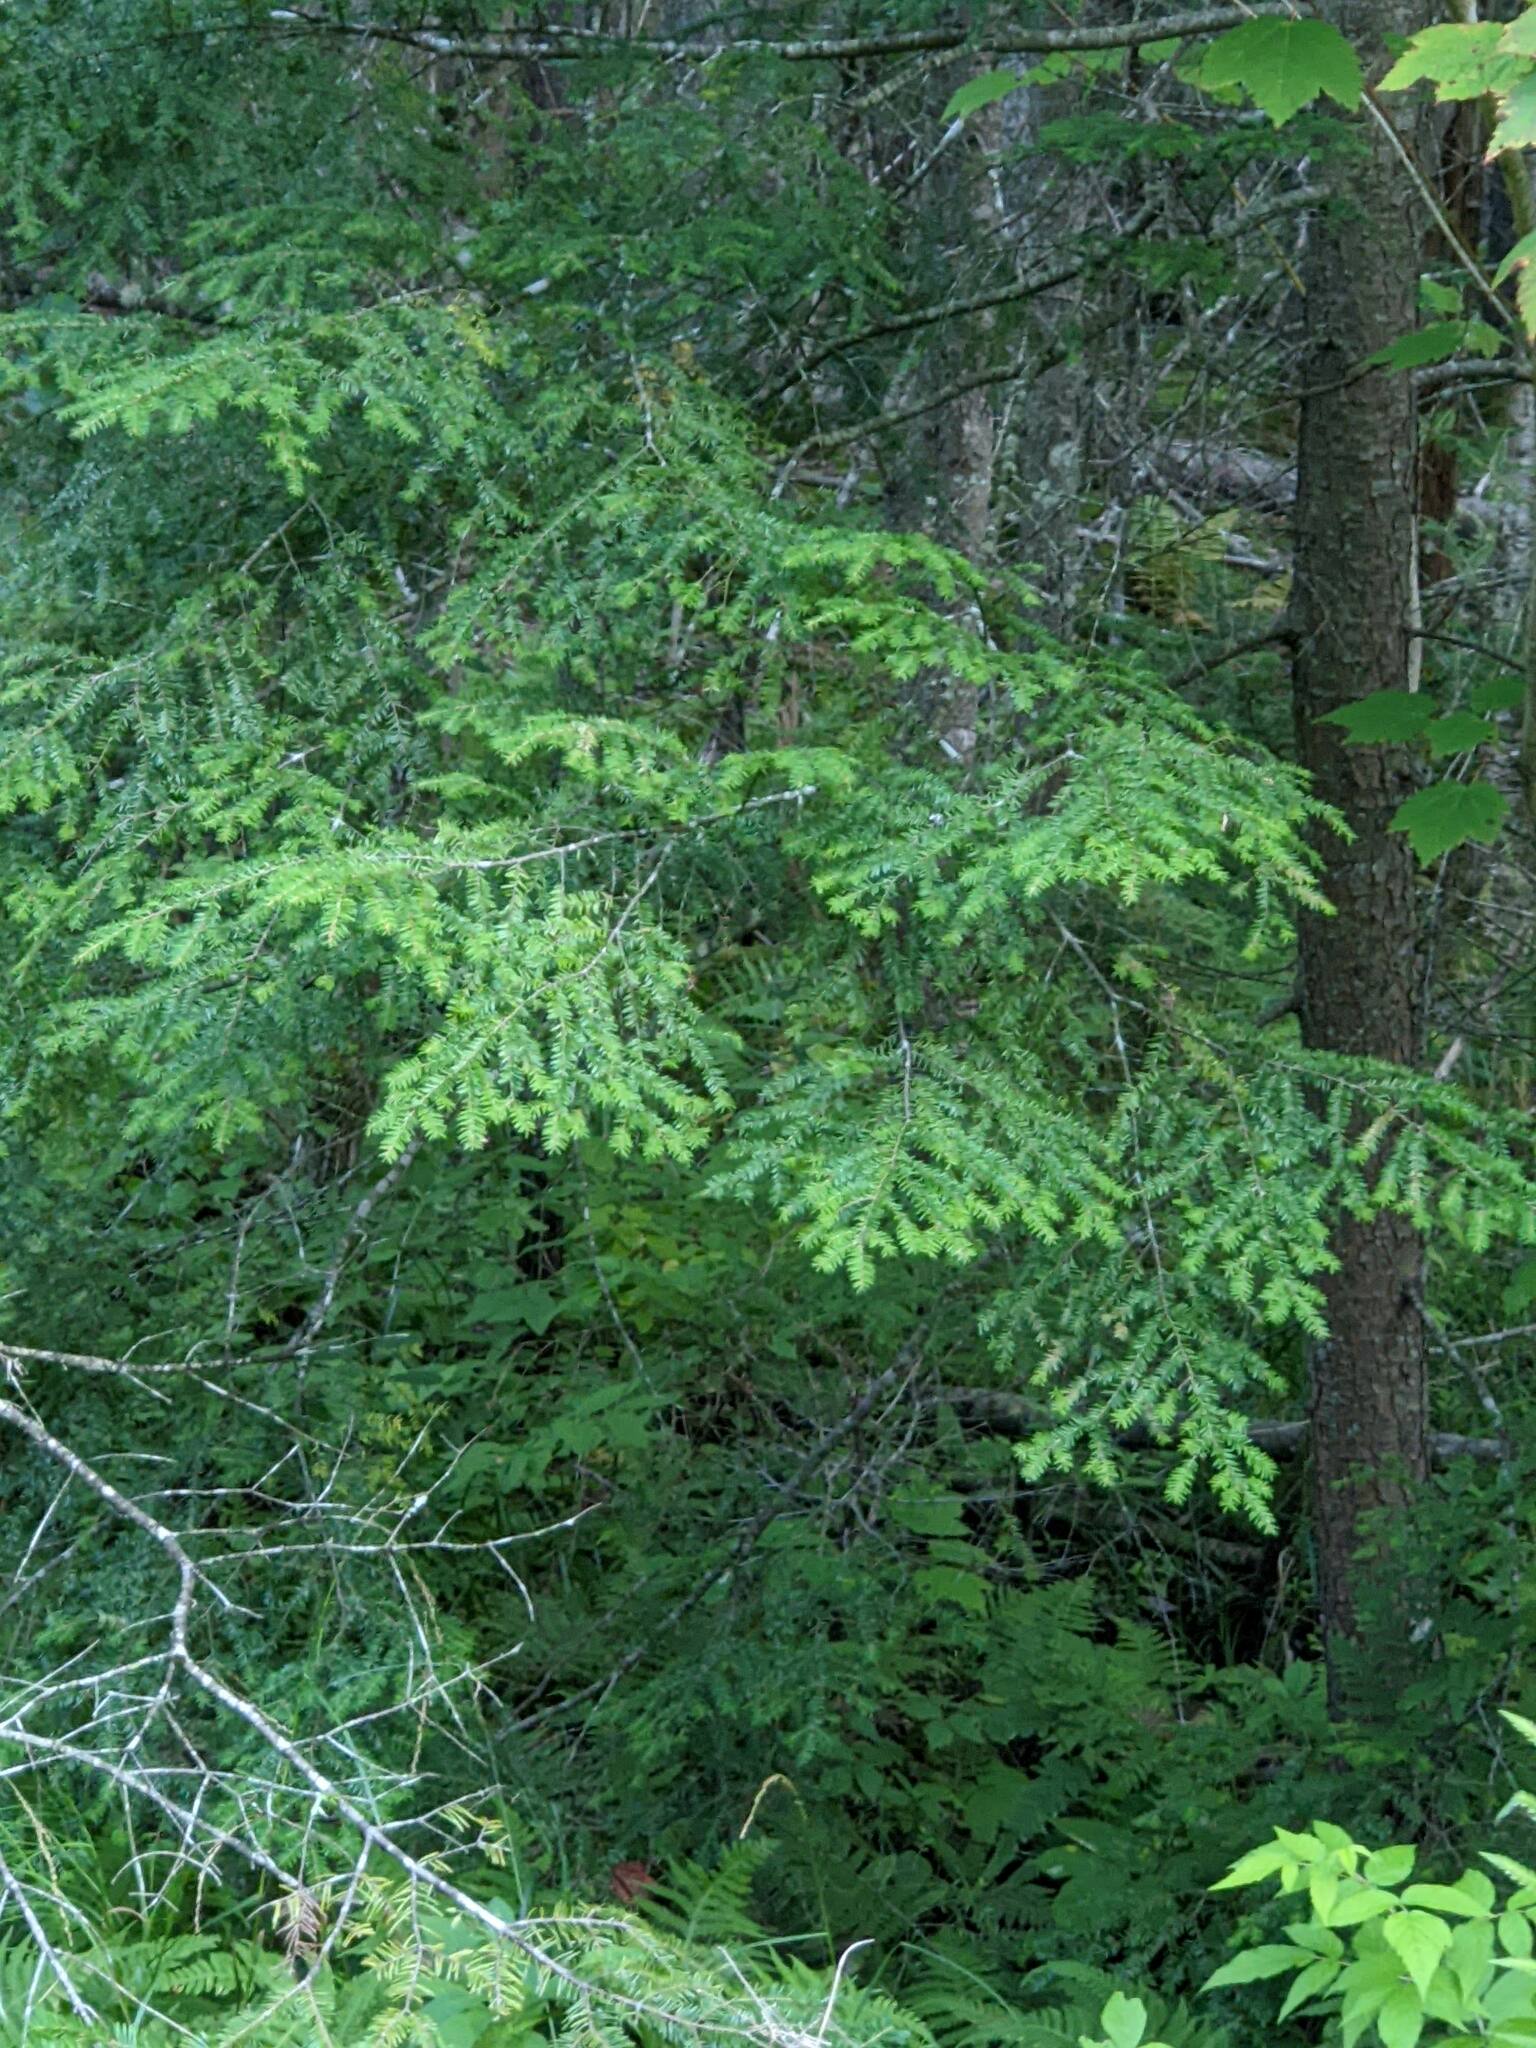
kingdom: Plantae
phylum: Tracheophyta
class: Pinopsida
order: Pinales
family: Pinaceae
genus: Tsuga
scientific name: Tsuga canadensis
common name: Eastern hemlock
